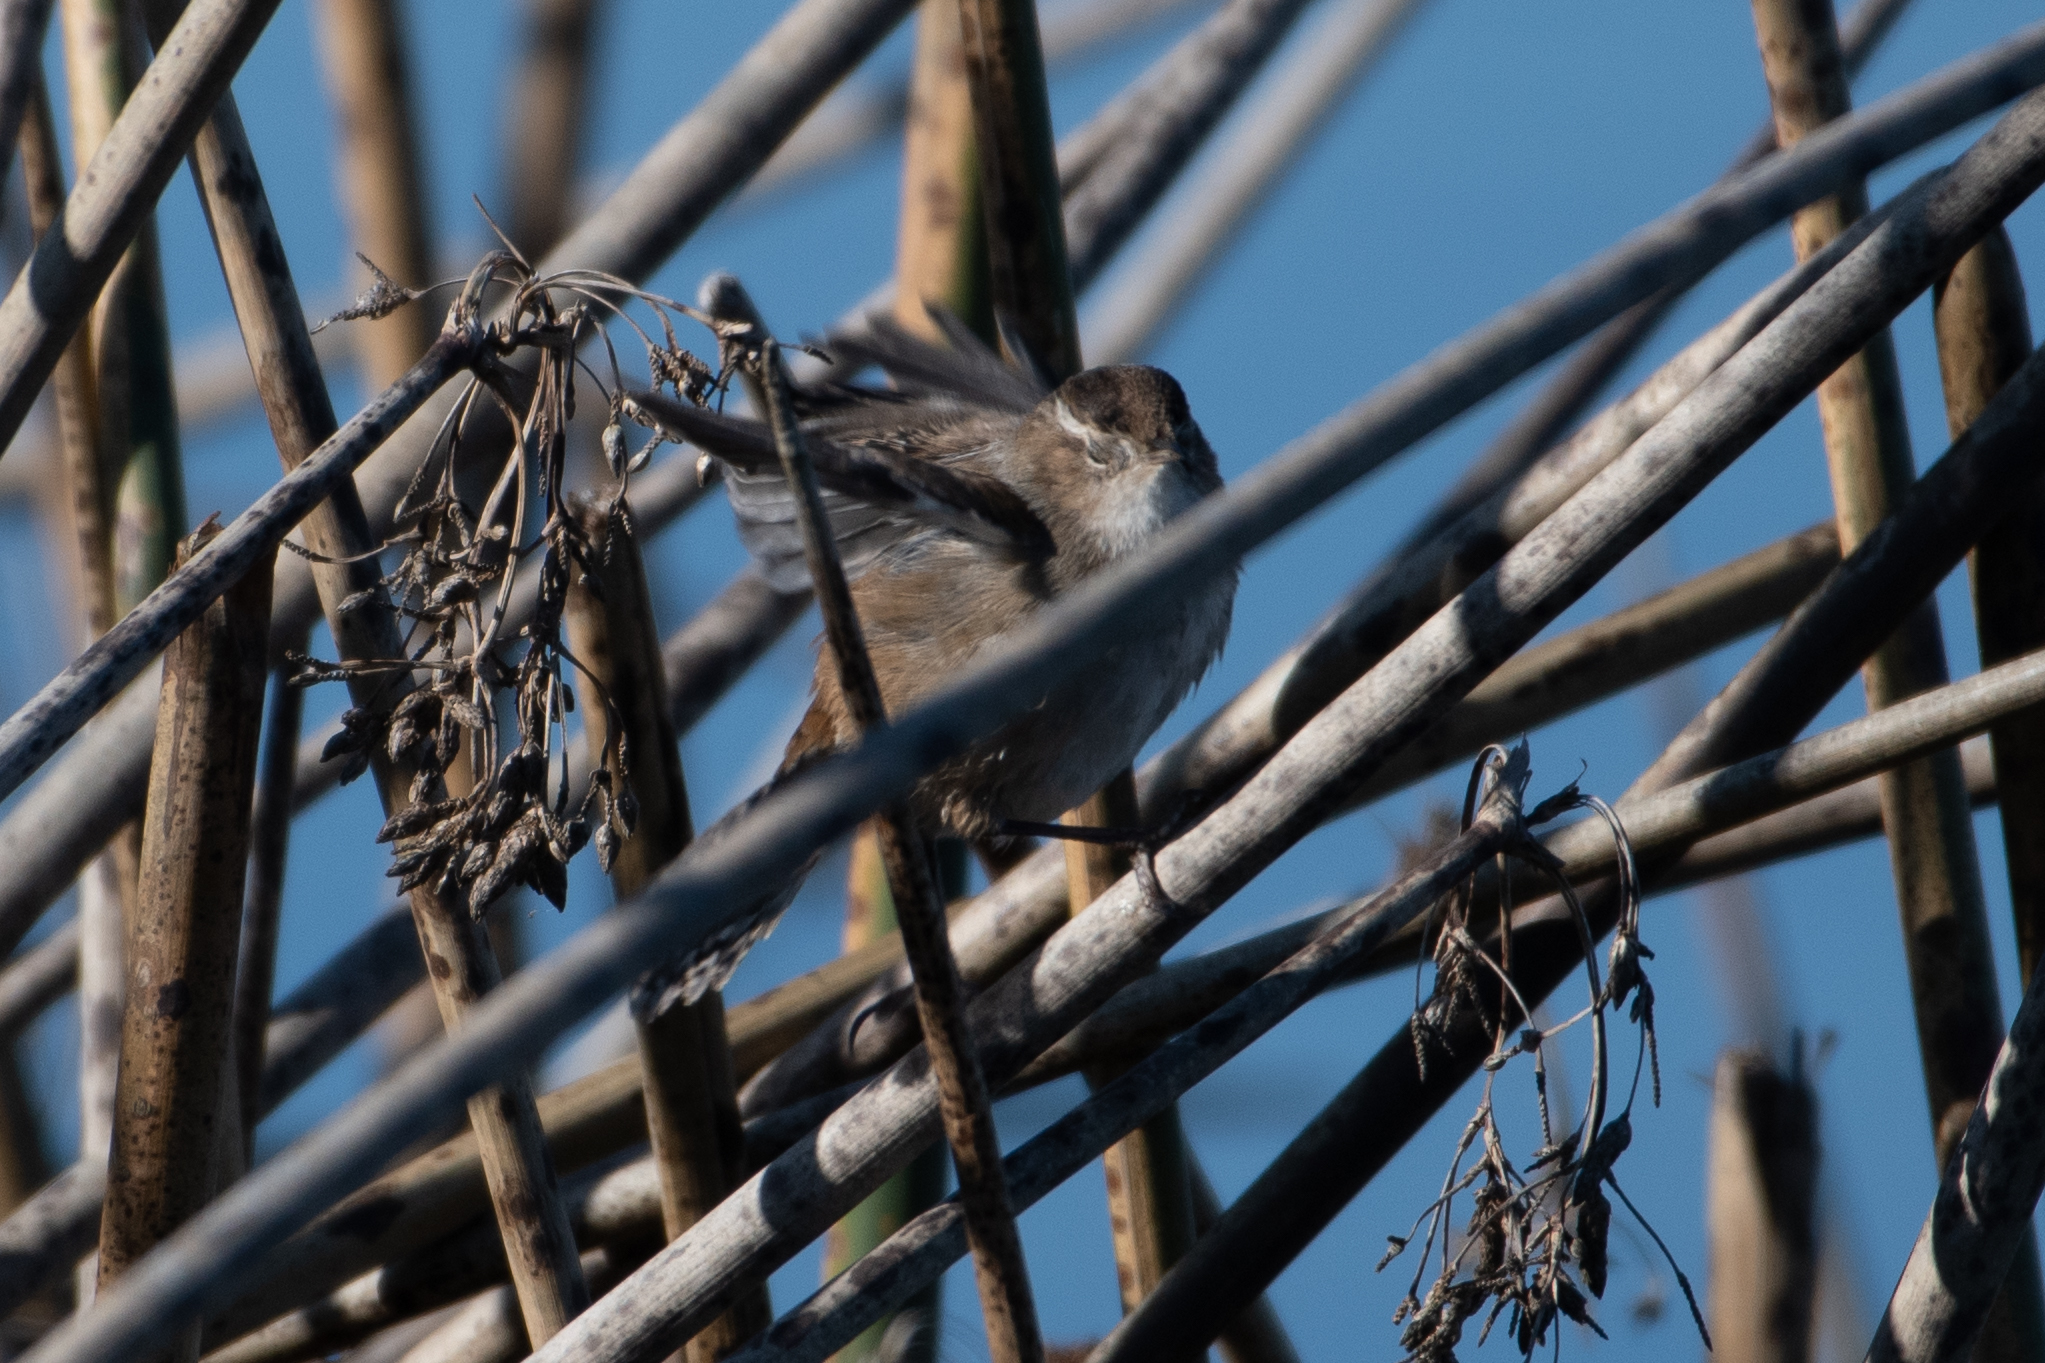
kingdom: Animalia
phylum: Chordata
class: Aves
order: Passeriformes
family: Troglodytidae
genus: Cistothorus
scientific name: Cistothorus palustris
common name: Marsh wren
